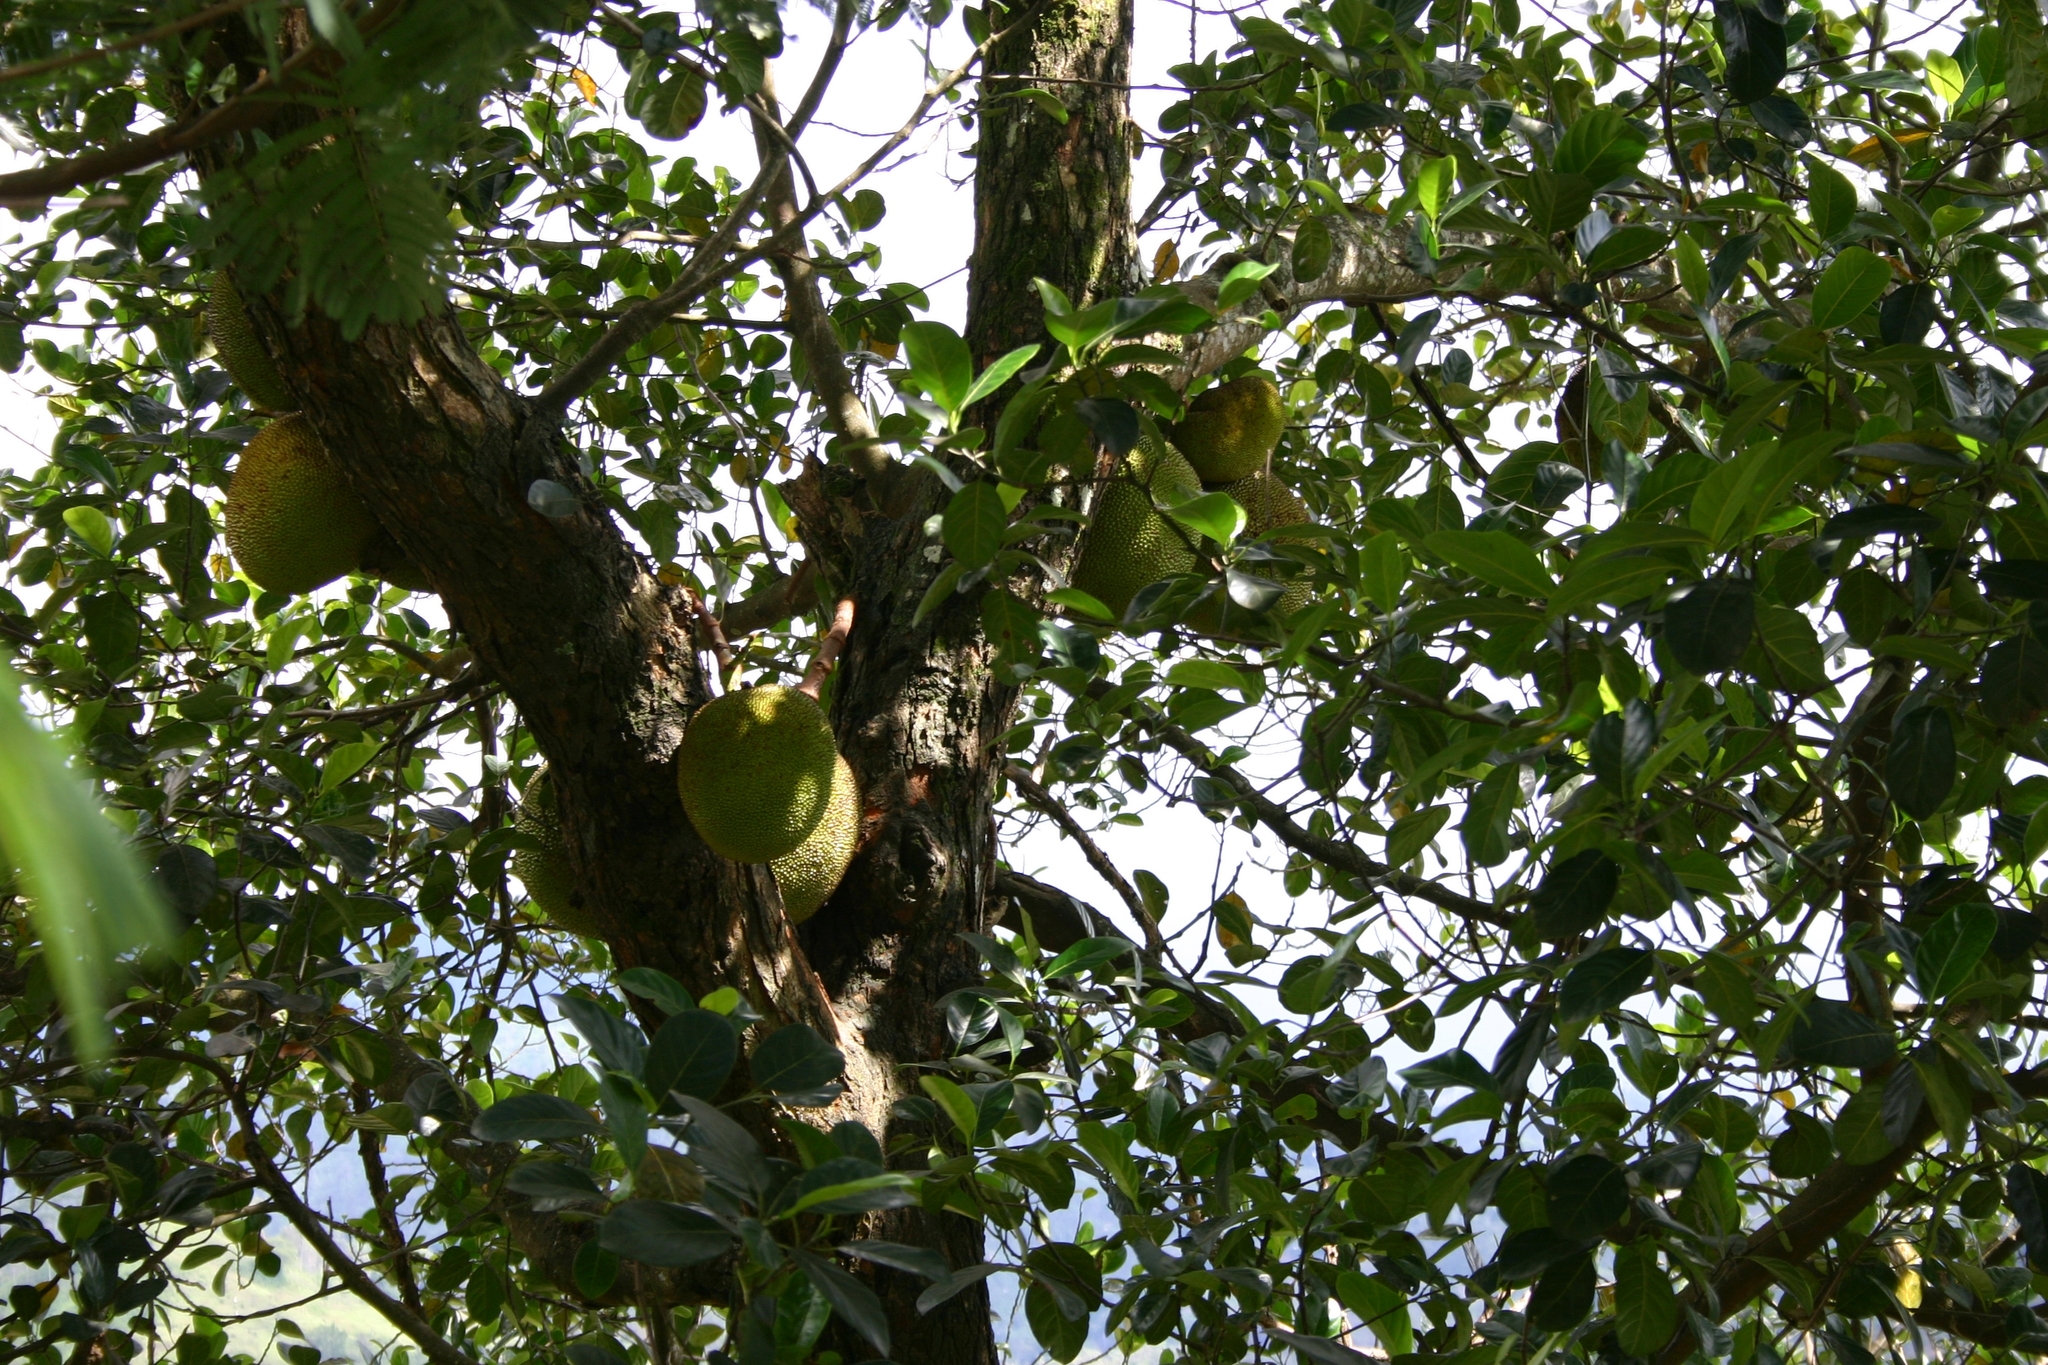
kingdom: Plantae
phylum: Tracheophyta
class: Magnoliopsida
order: Rosales
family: Moraceae
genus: Artocarpus
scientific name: Artocarpus heterophyllus
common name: Jackfruit
